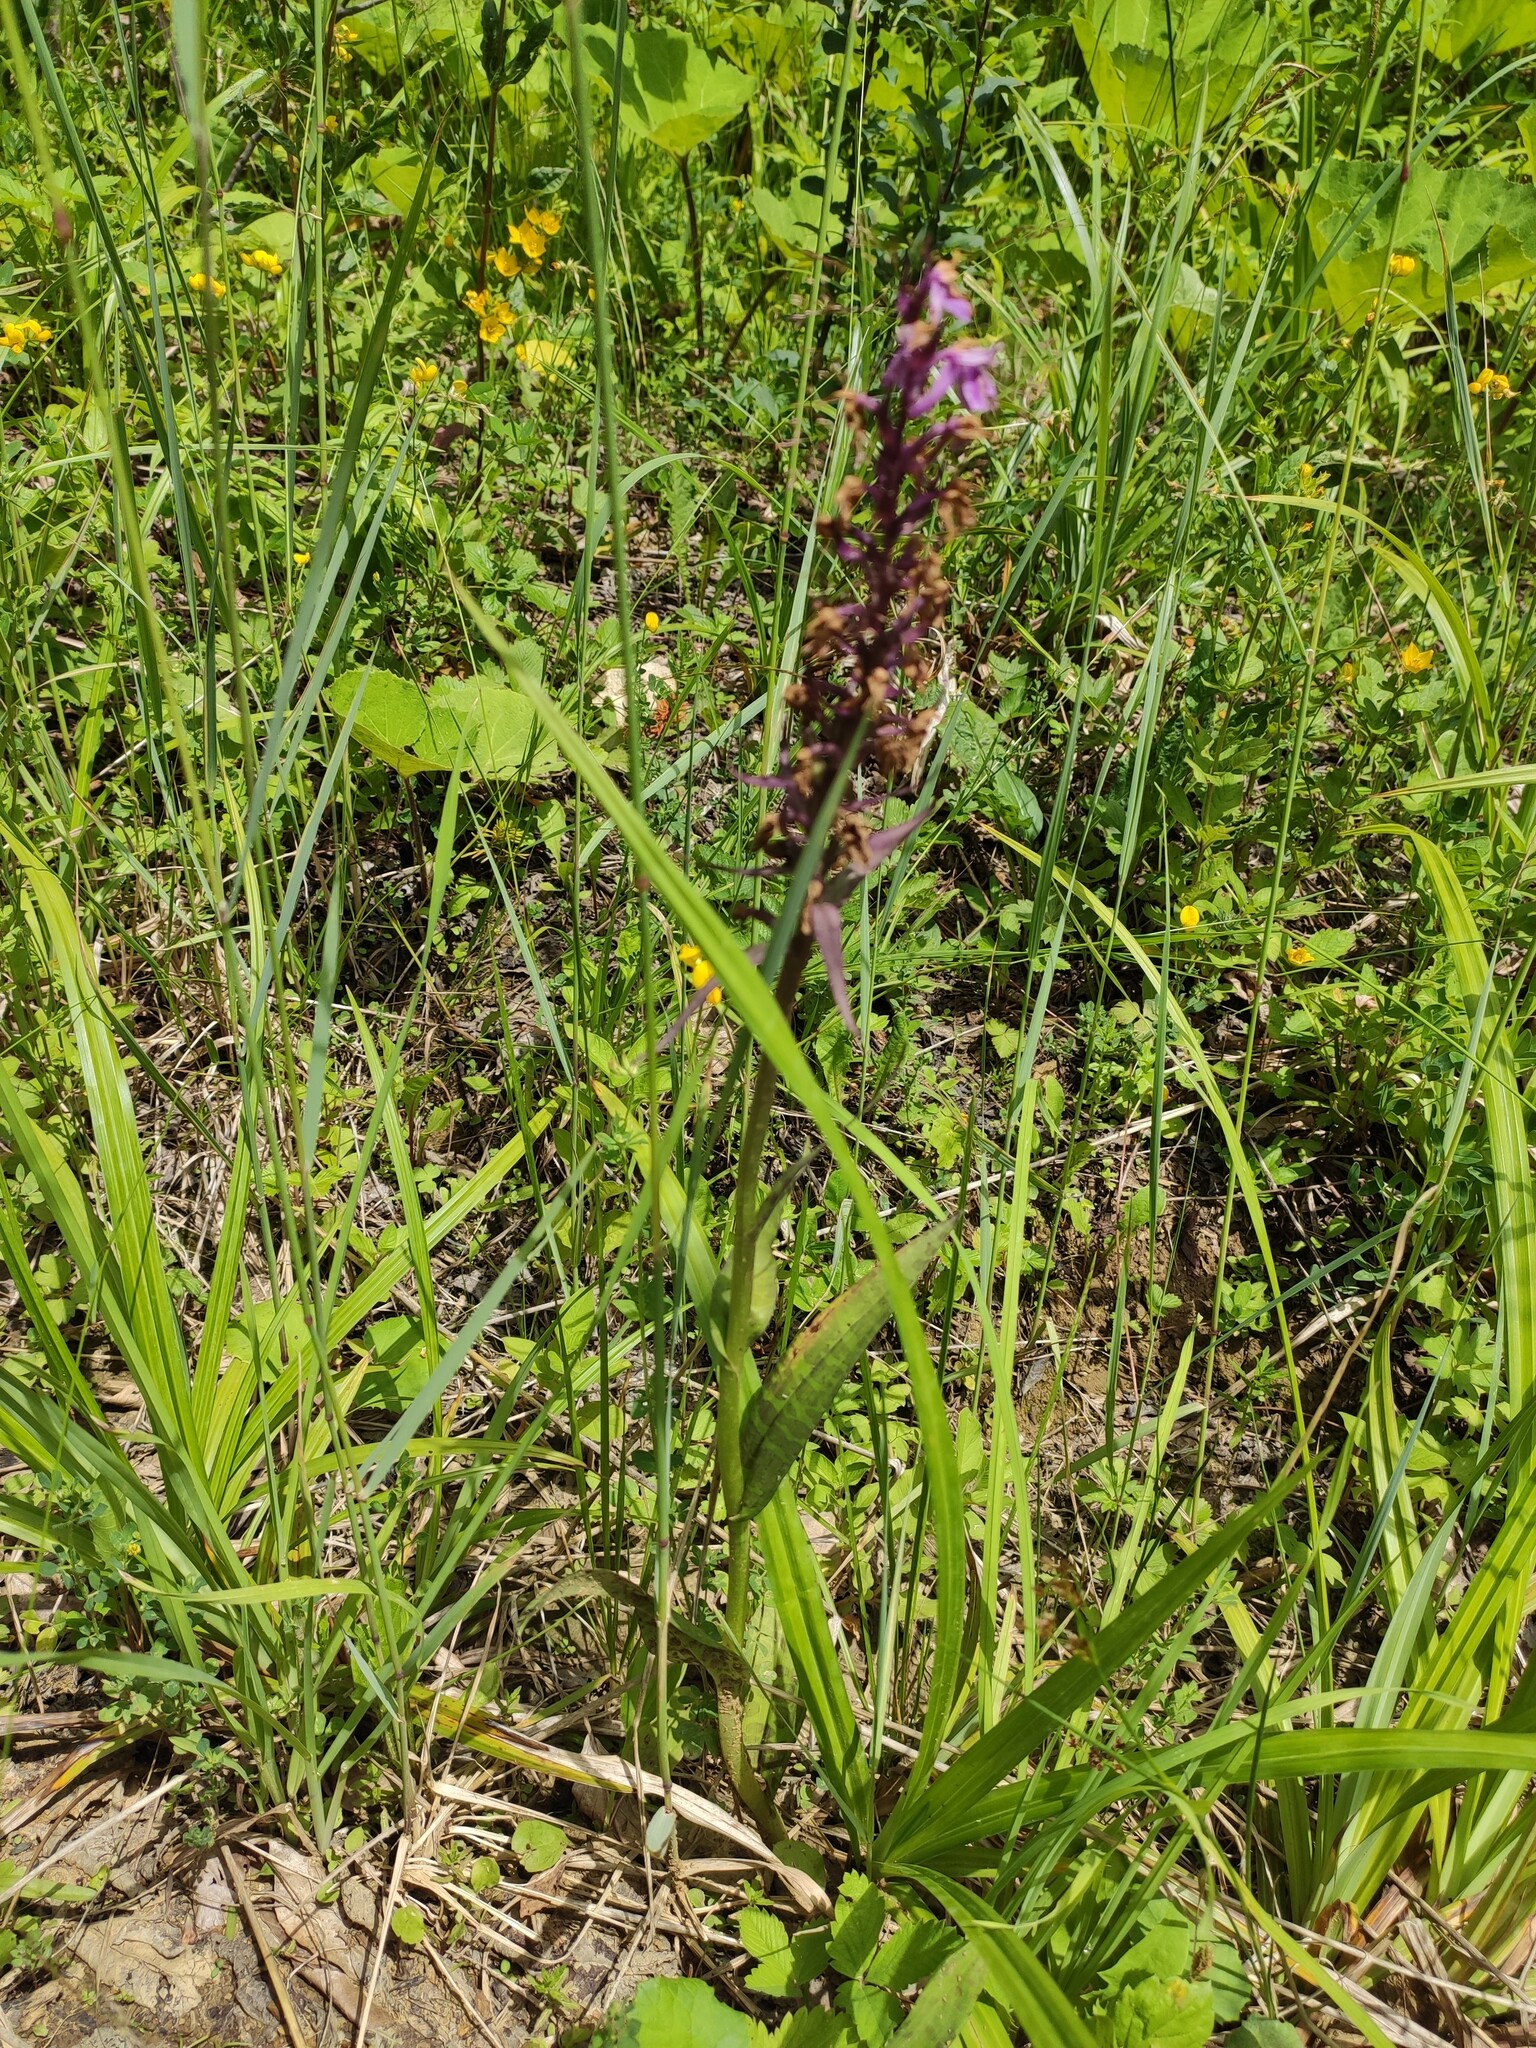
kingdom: Plantae
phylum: Tracheophyta
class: Liliopsida
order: Asparagales
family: Orchidaceae
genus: Dactylorhiza
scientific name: Dactylorhiza urvilleana
